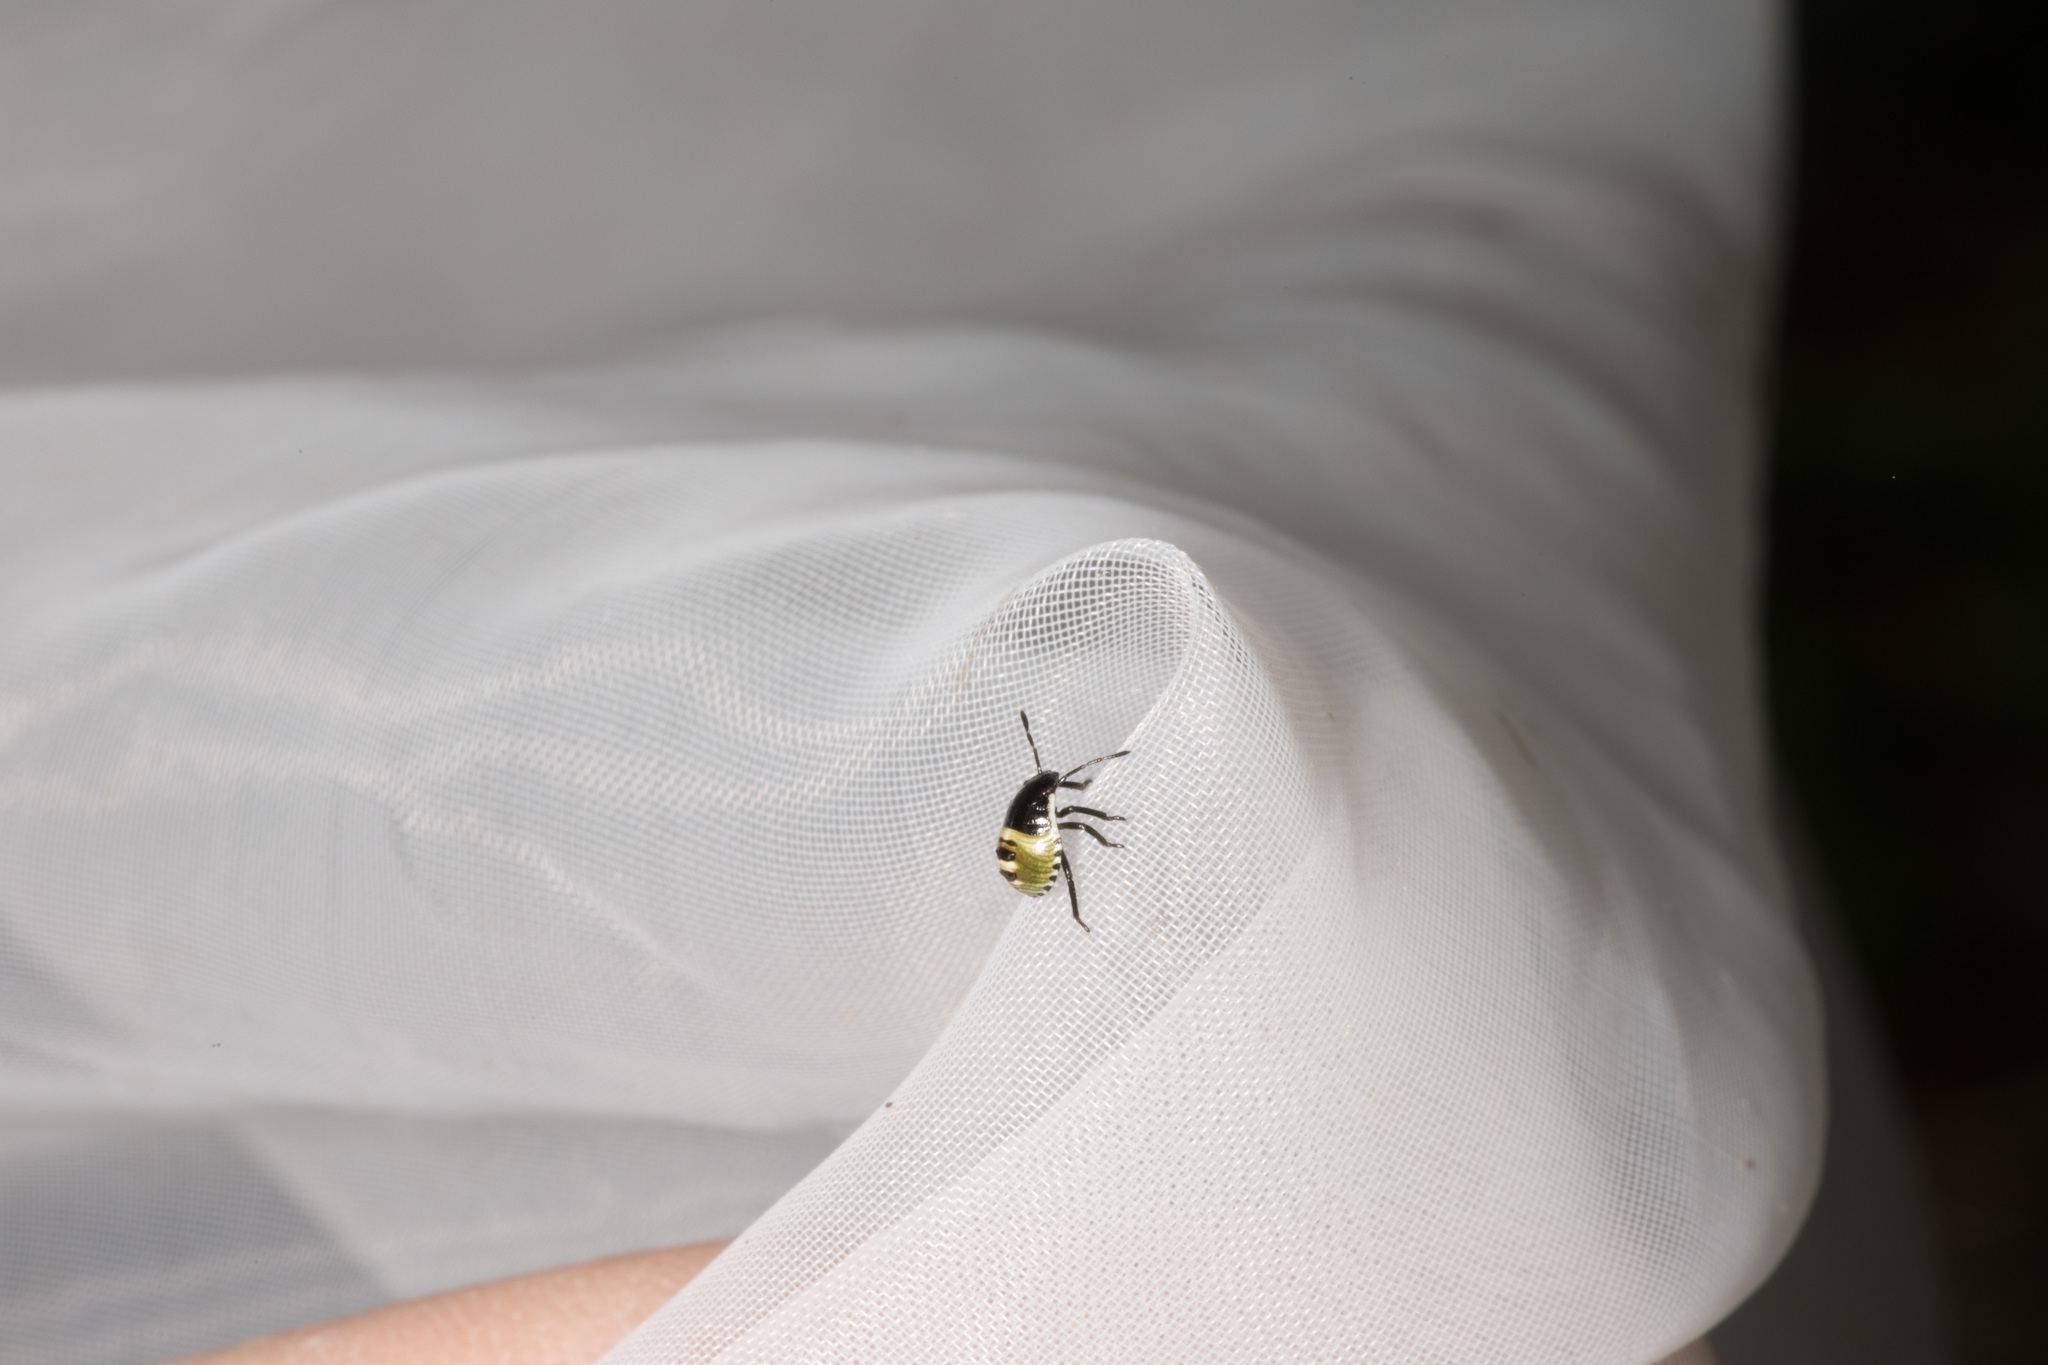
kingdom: Animalia
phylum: Arthropoda
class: Insecta
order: Hemiptera
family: Pentatomidae
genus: Palomena
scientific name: Palomena prasina
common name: Green shieldbug
